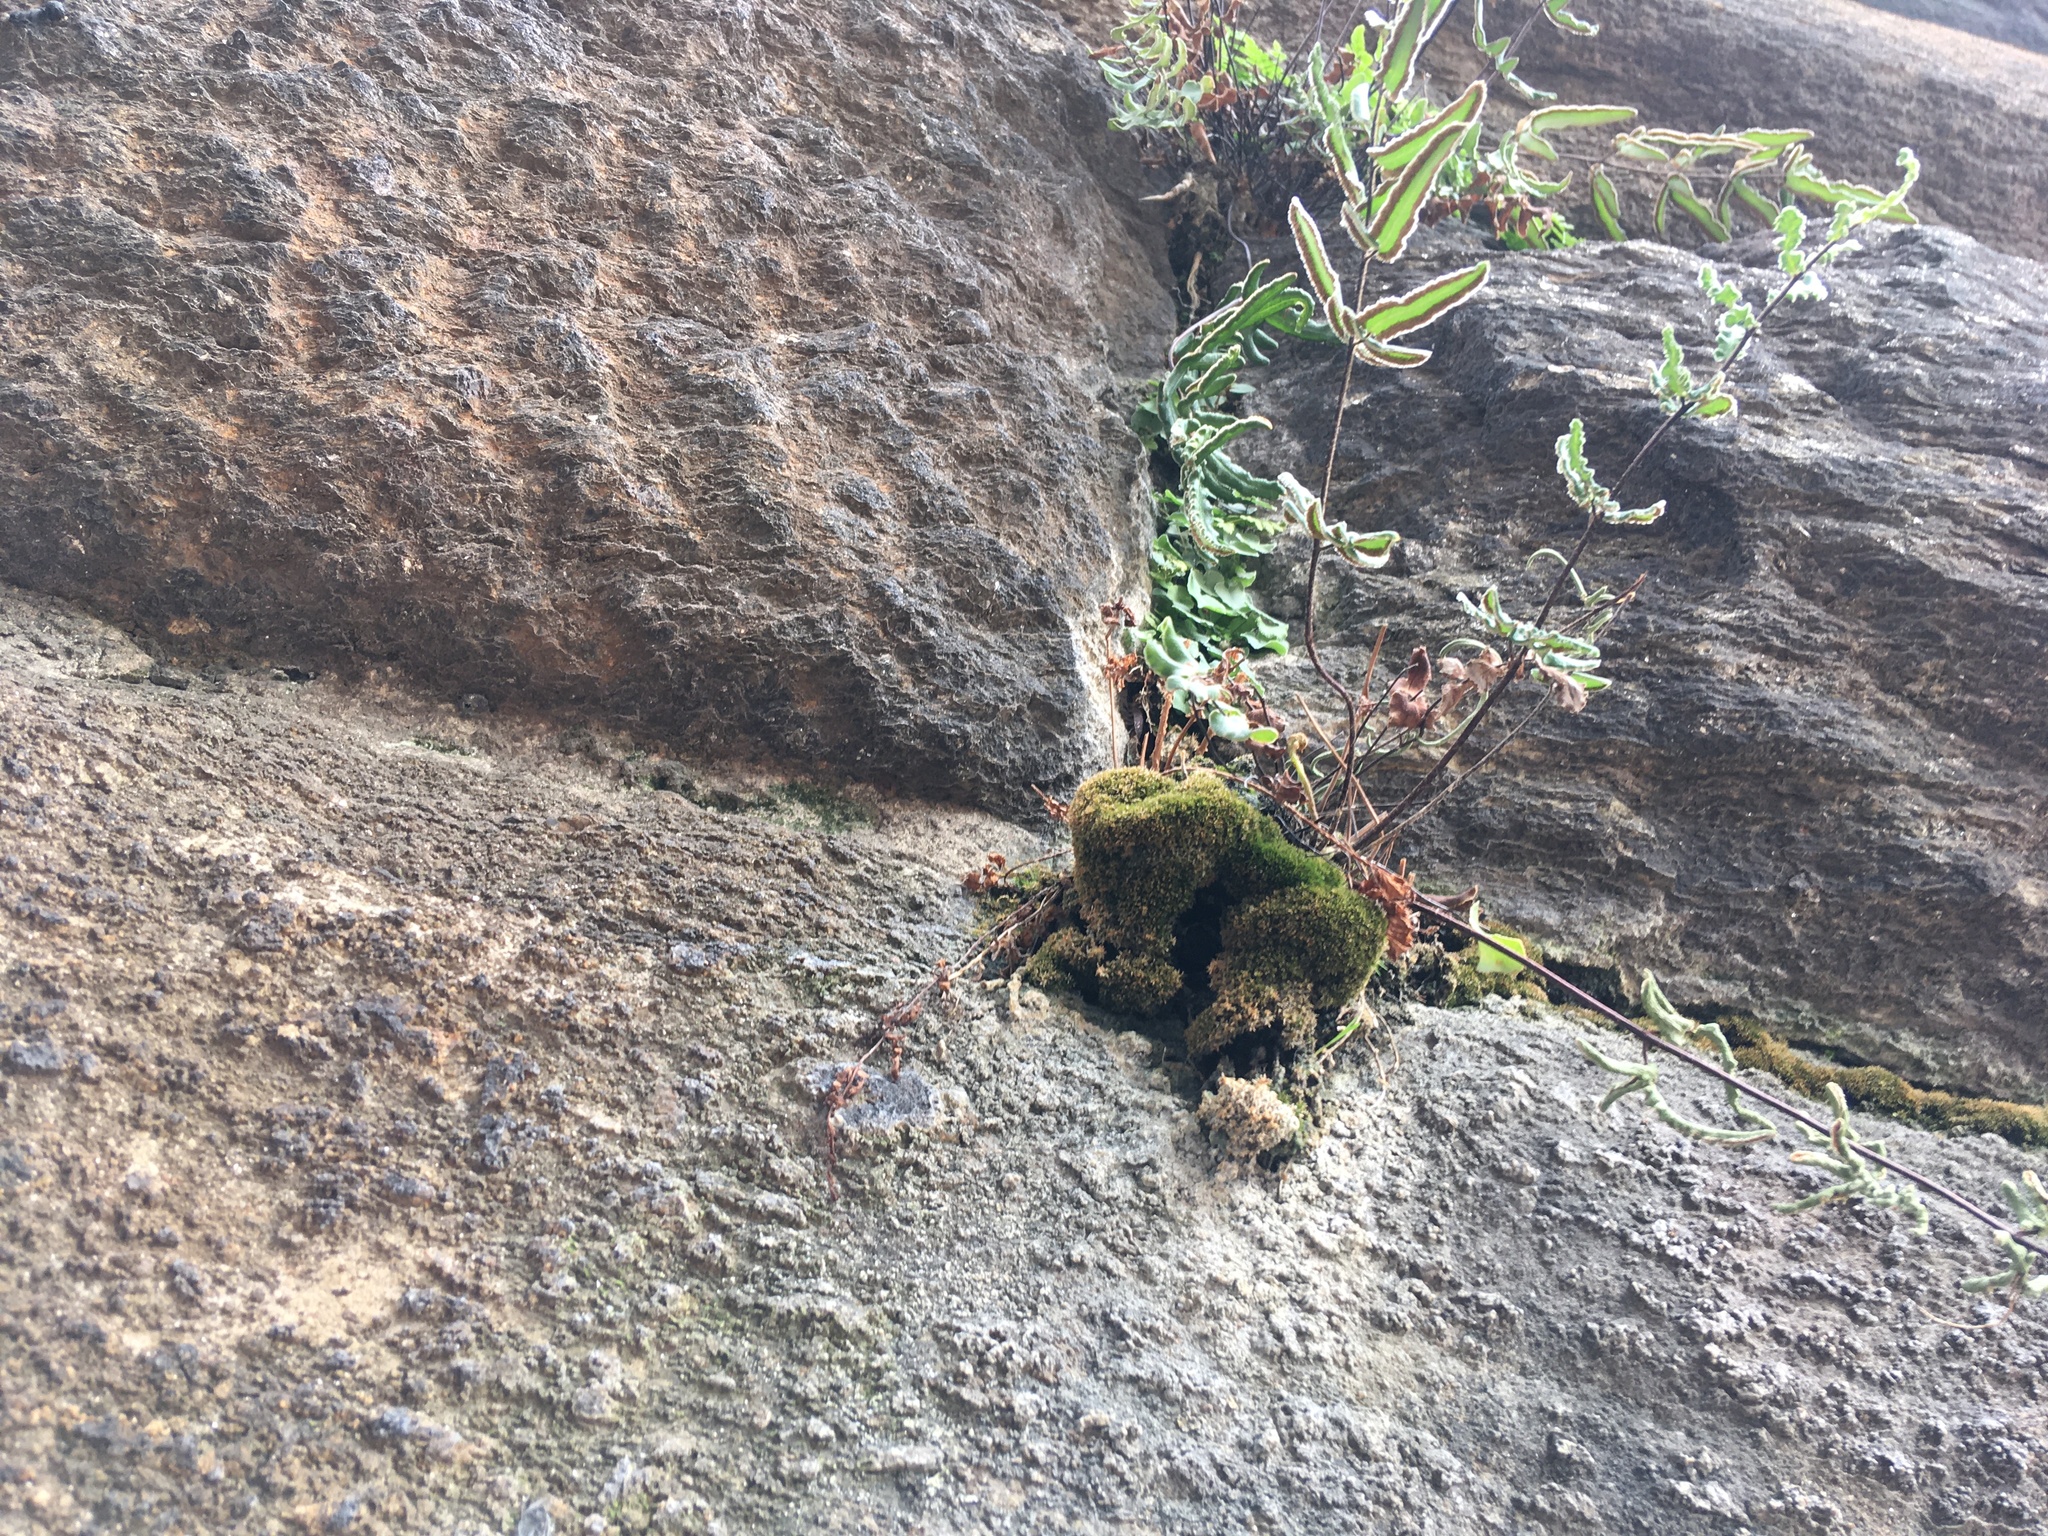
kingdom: Plantae
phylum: Tracheophyta
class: Polypodiopsida
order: Polypodiales
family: Pteridaceae
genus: Pellaea
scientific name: Pellaea atropurpurea
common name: Hairy cliffbrake
